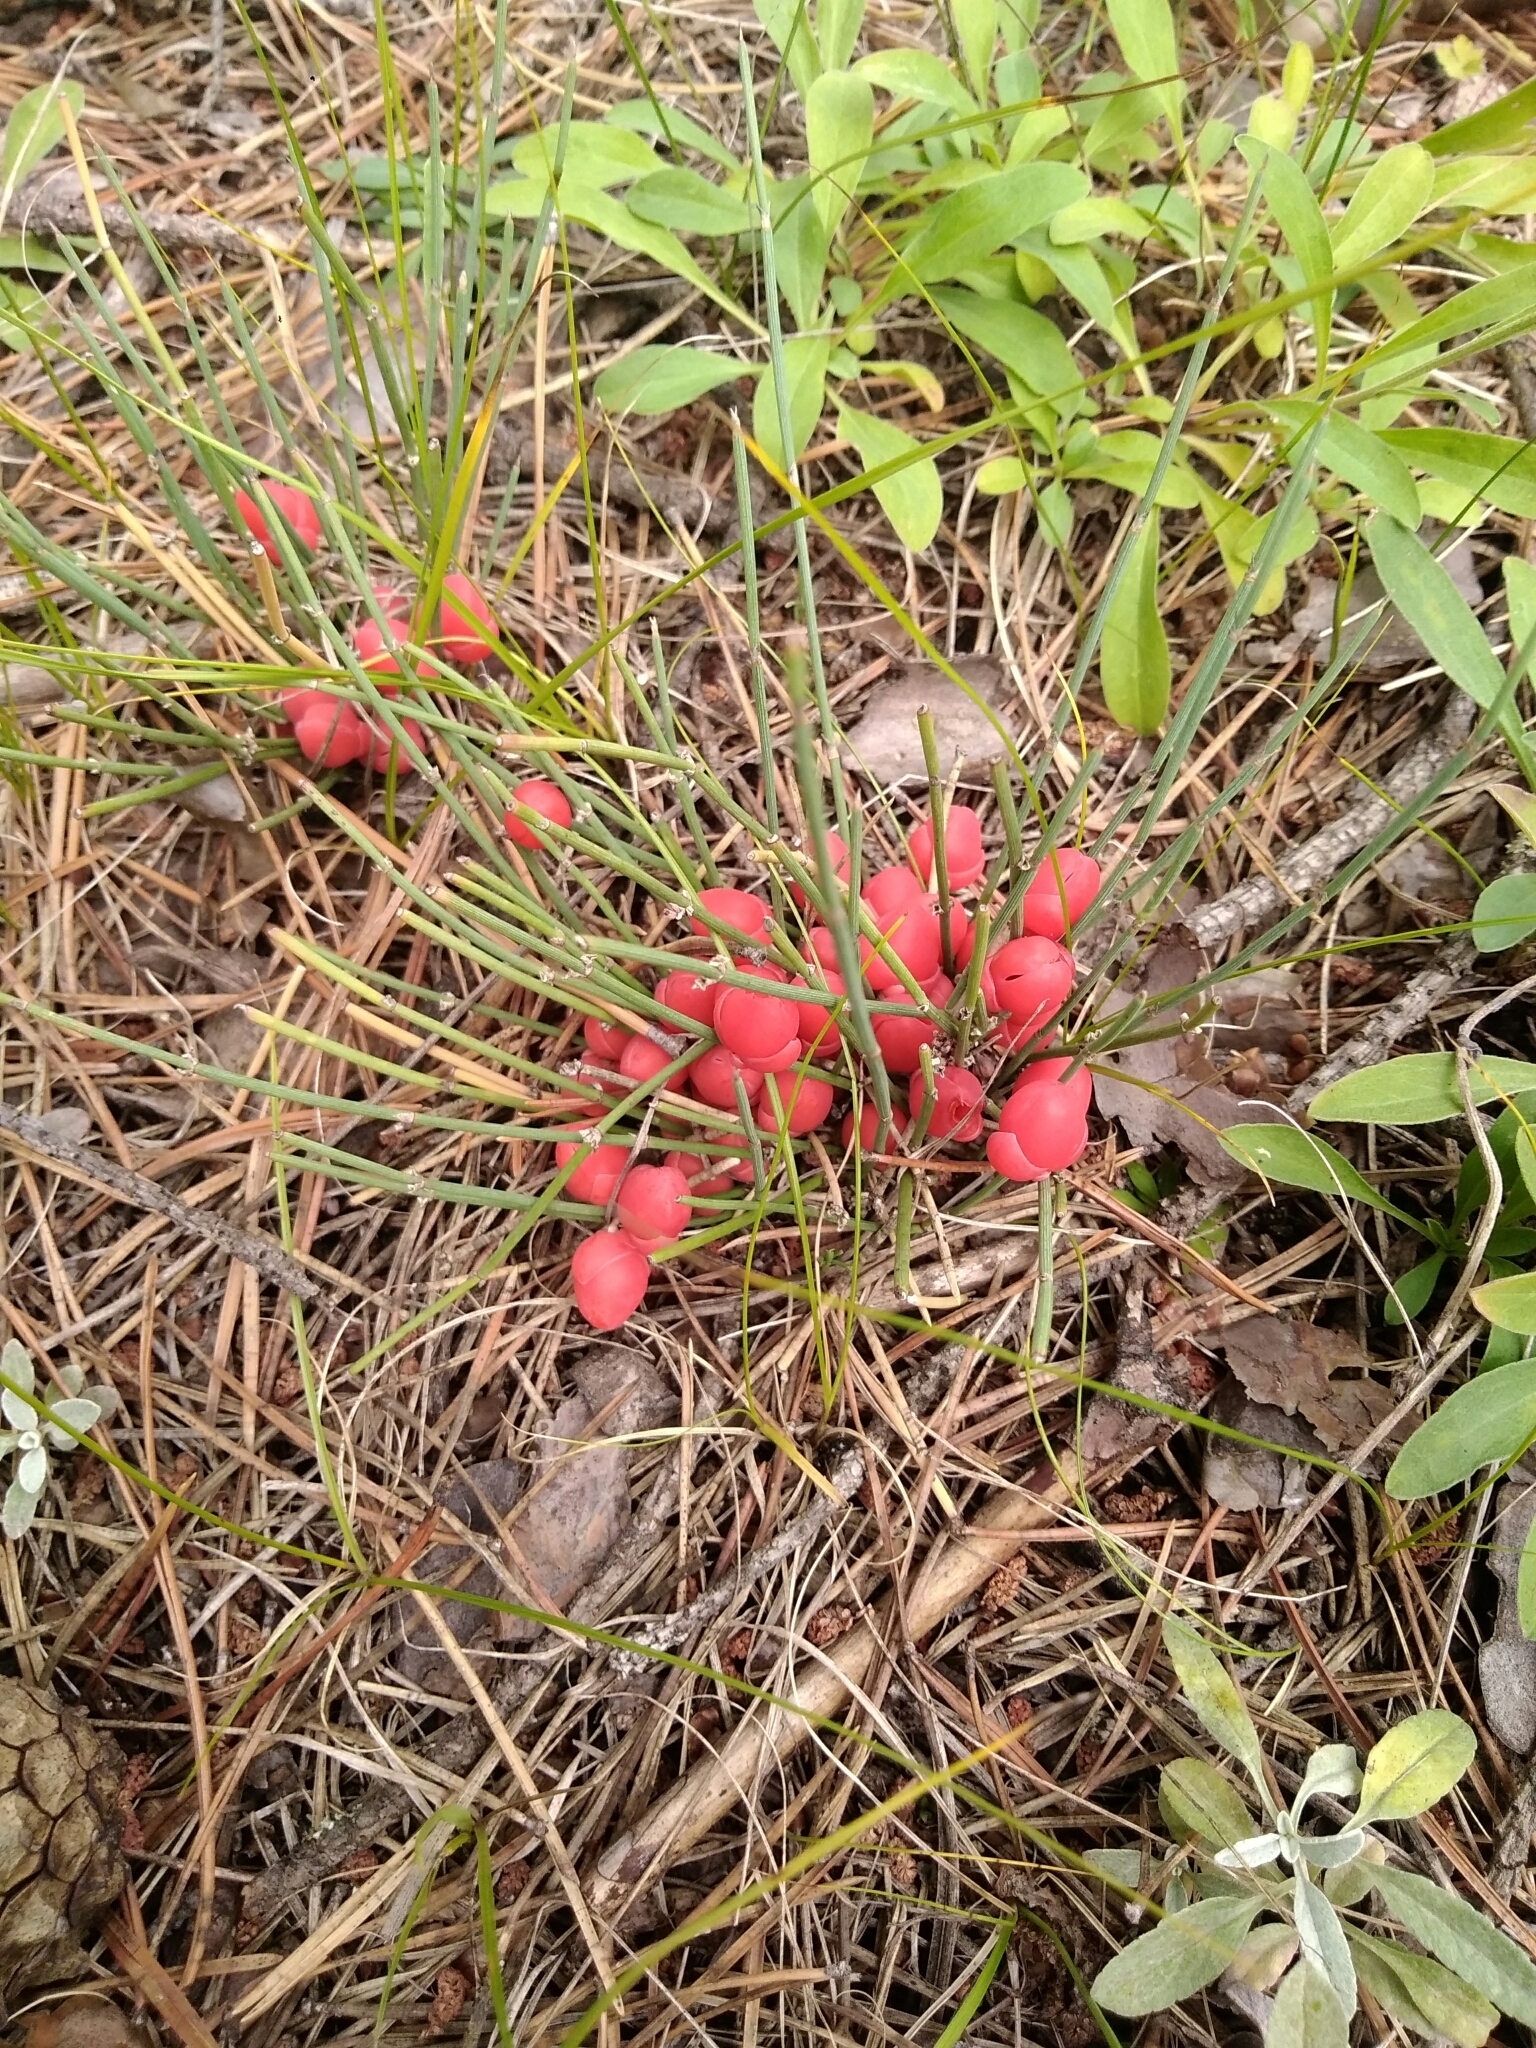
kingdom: Plantae
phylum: Tracheophyta
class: Gnetopsida
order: Ephedrales
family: Ephedraceae
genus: Ephedra
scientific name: Ephedra monosperma
